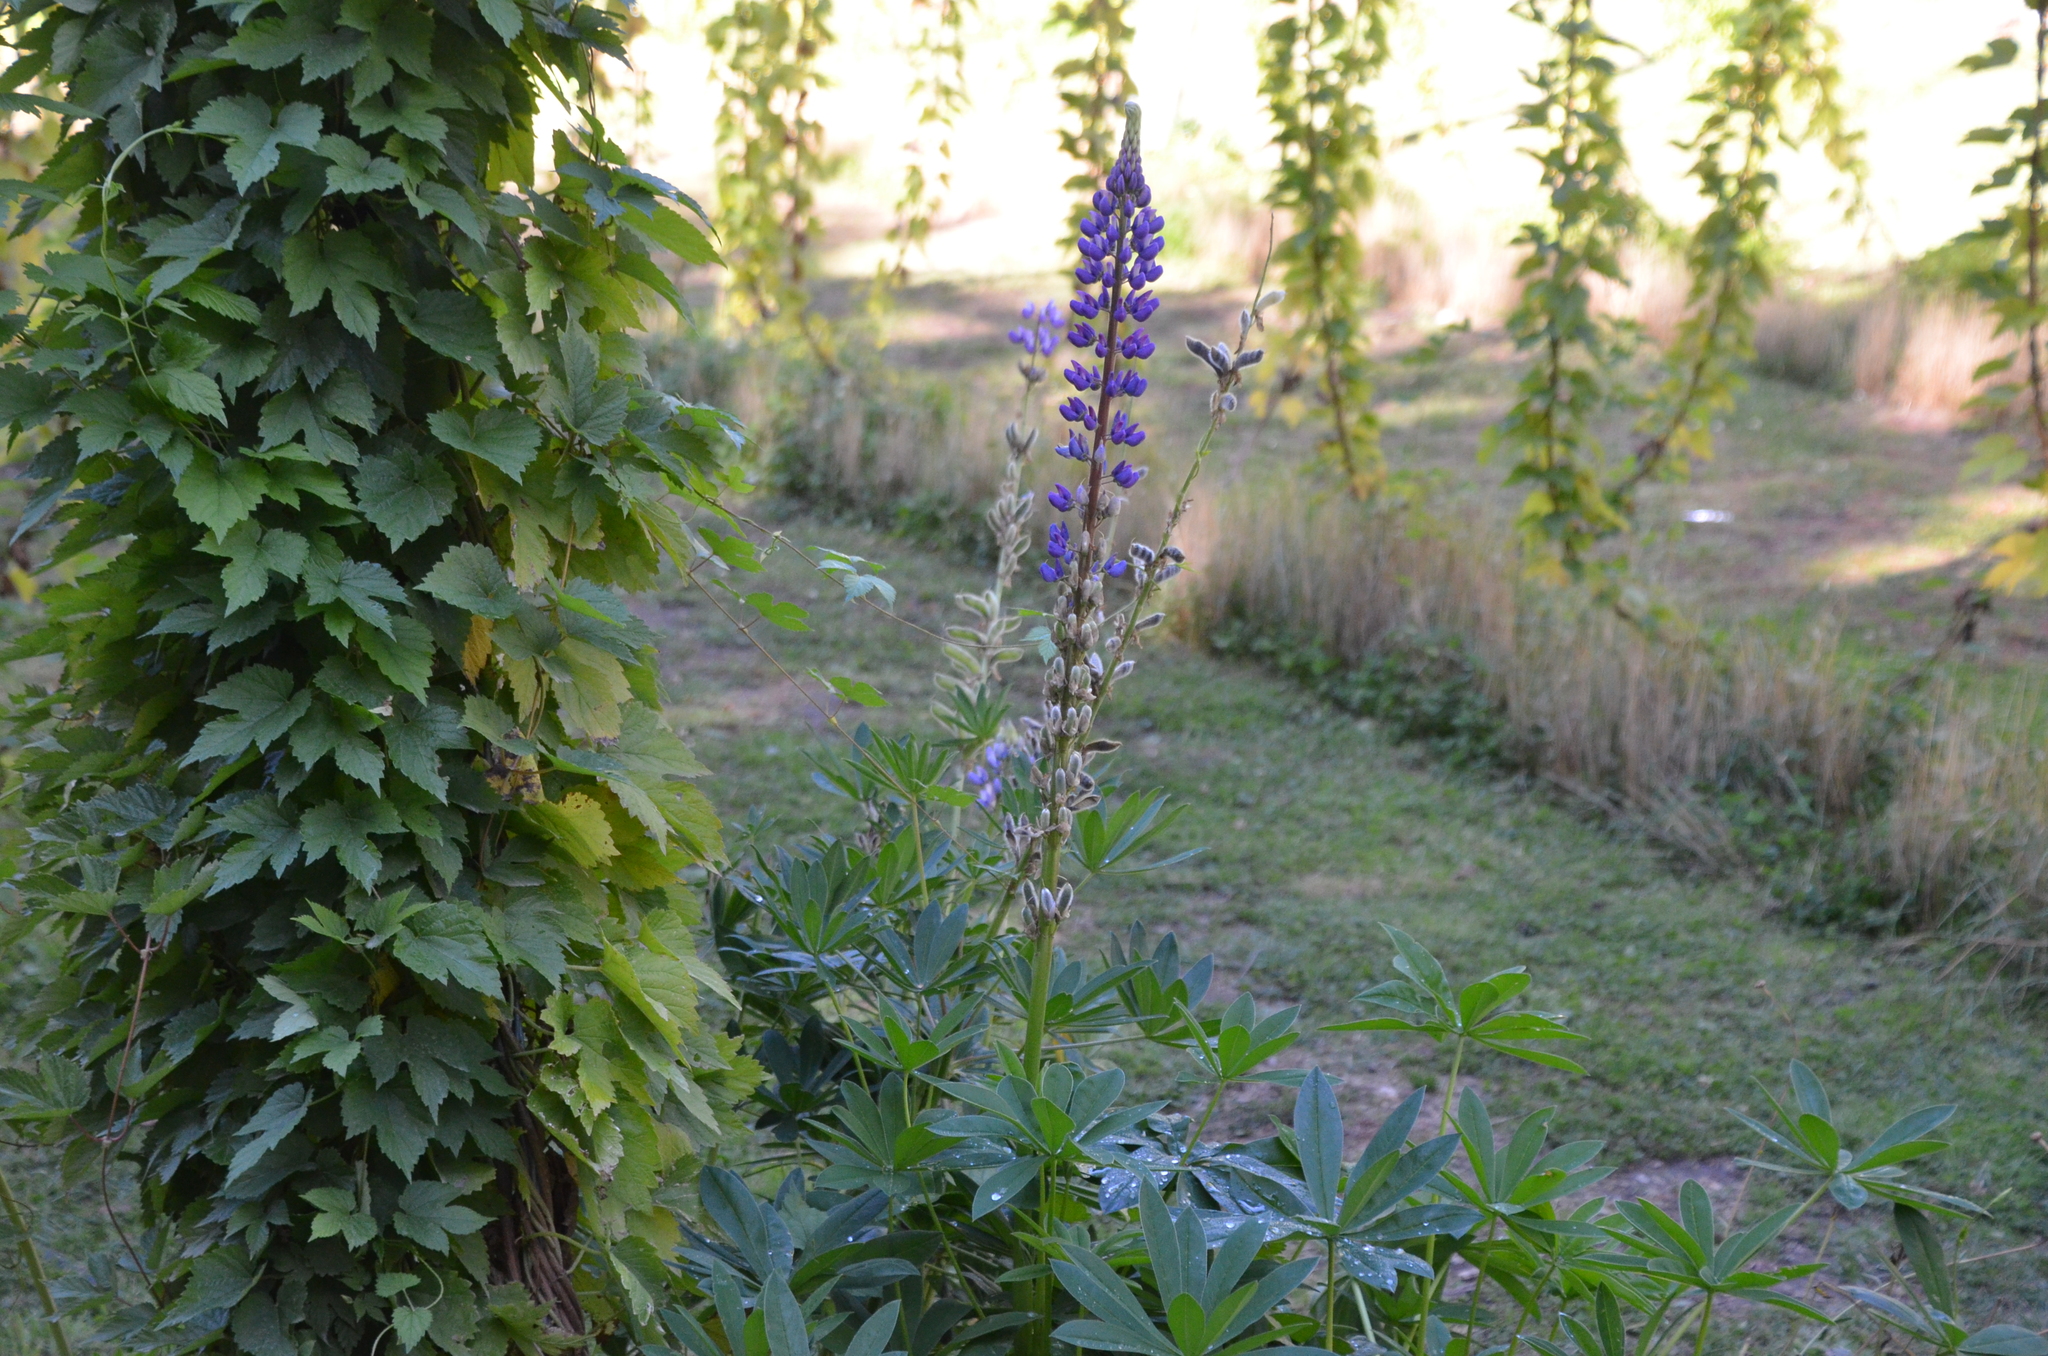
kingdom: Plantae
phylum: Tracheophyta
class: Magnoliopsida
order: Fabales
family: Fabaceae
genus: Lupinus
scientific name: Lupinus polyphyllus
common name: Garden lupin
